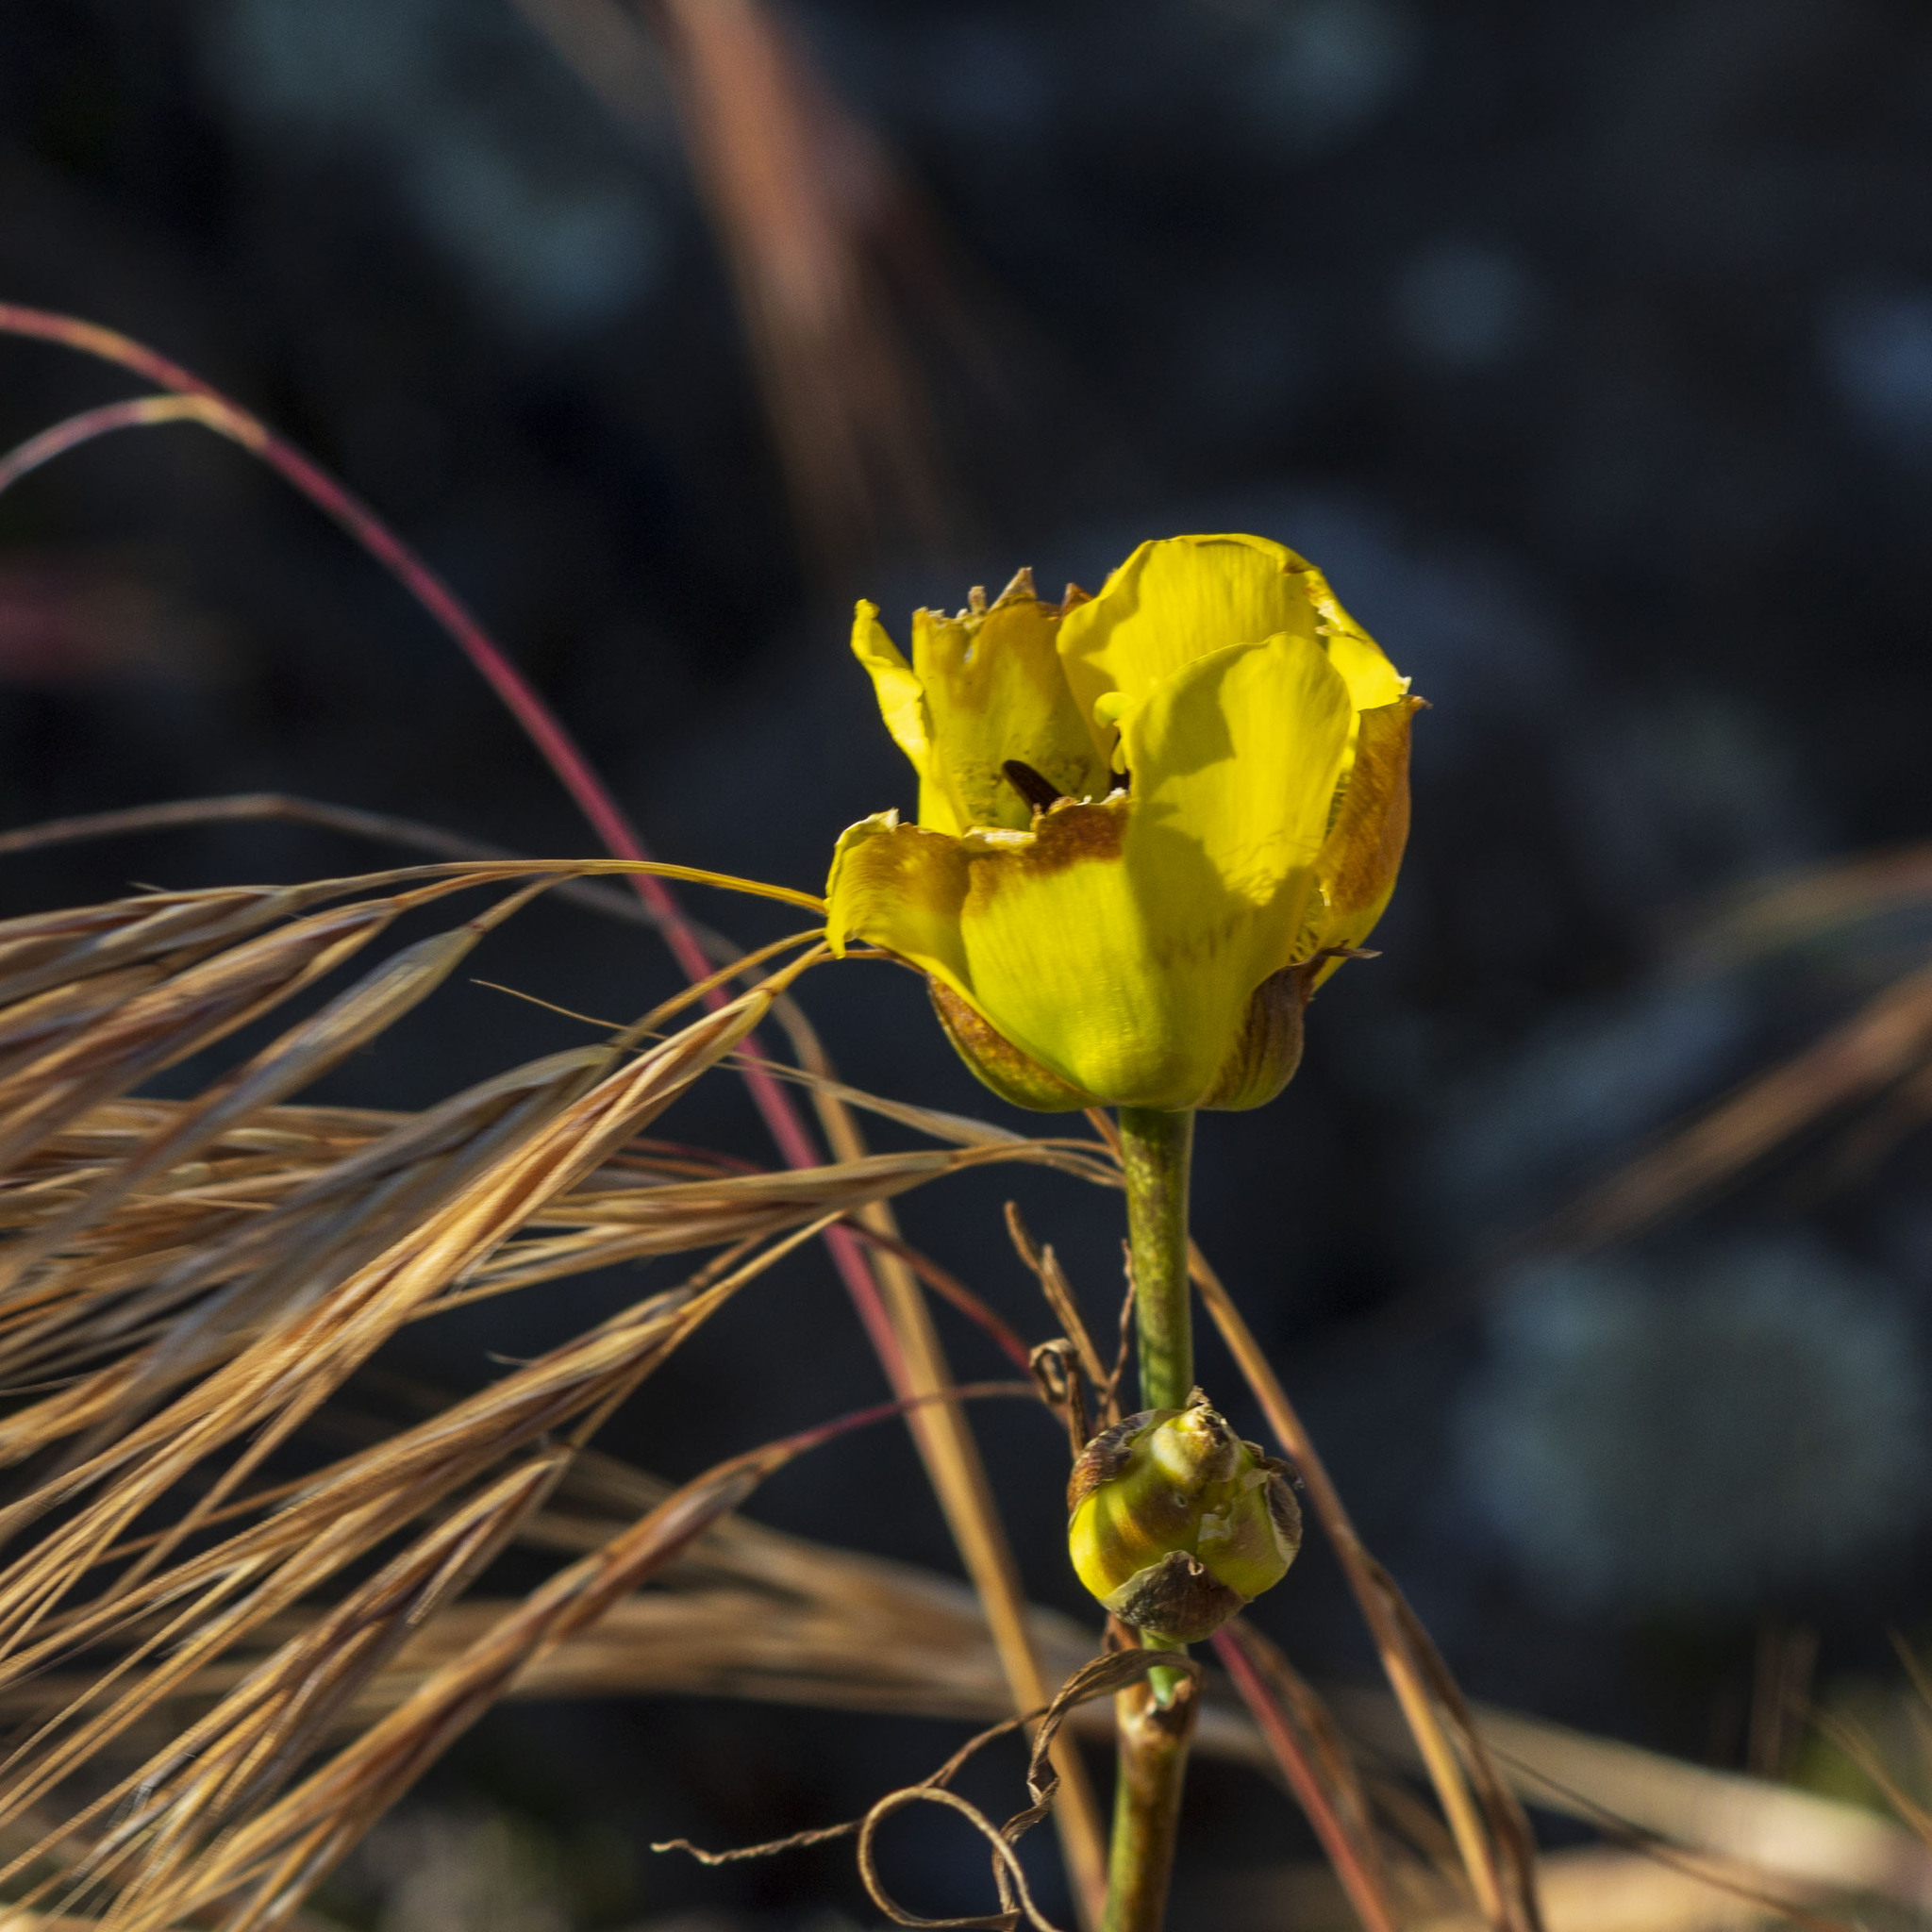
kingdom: Plantae
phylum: Tracheophyta
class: Liliopsida
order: Liliales
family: Liliaceae
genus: Calochortus
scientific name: Calochortus clavatus
